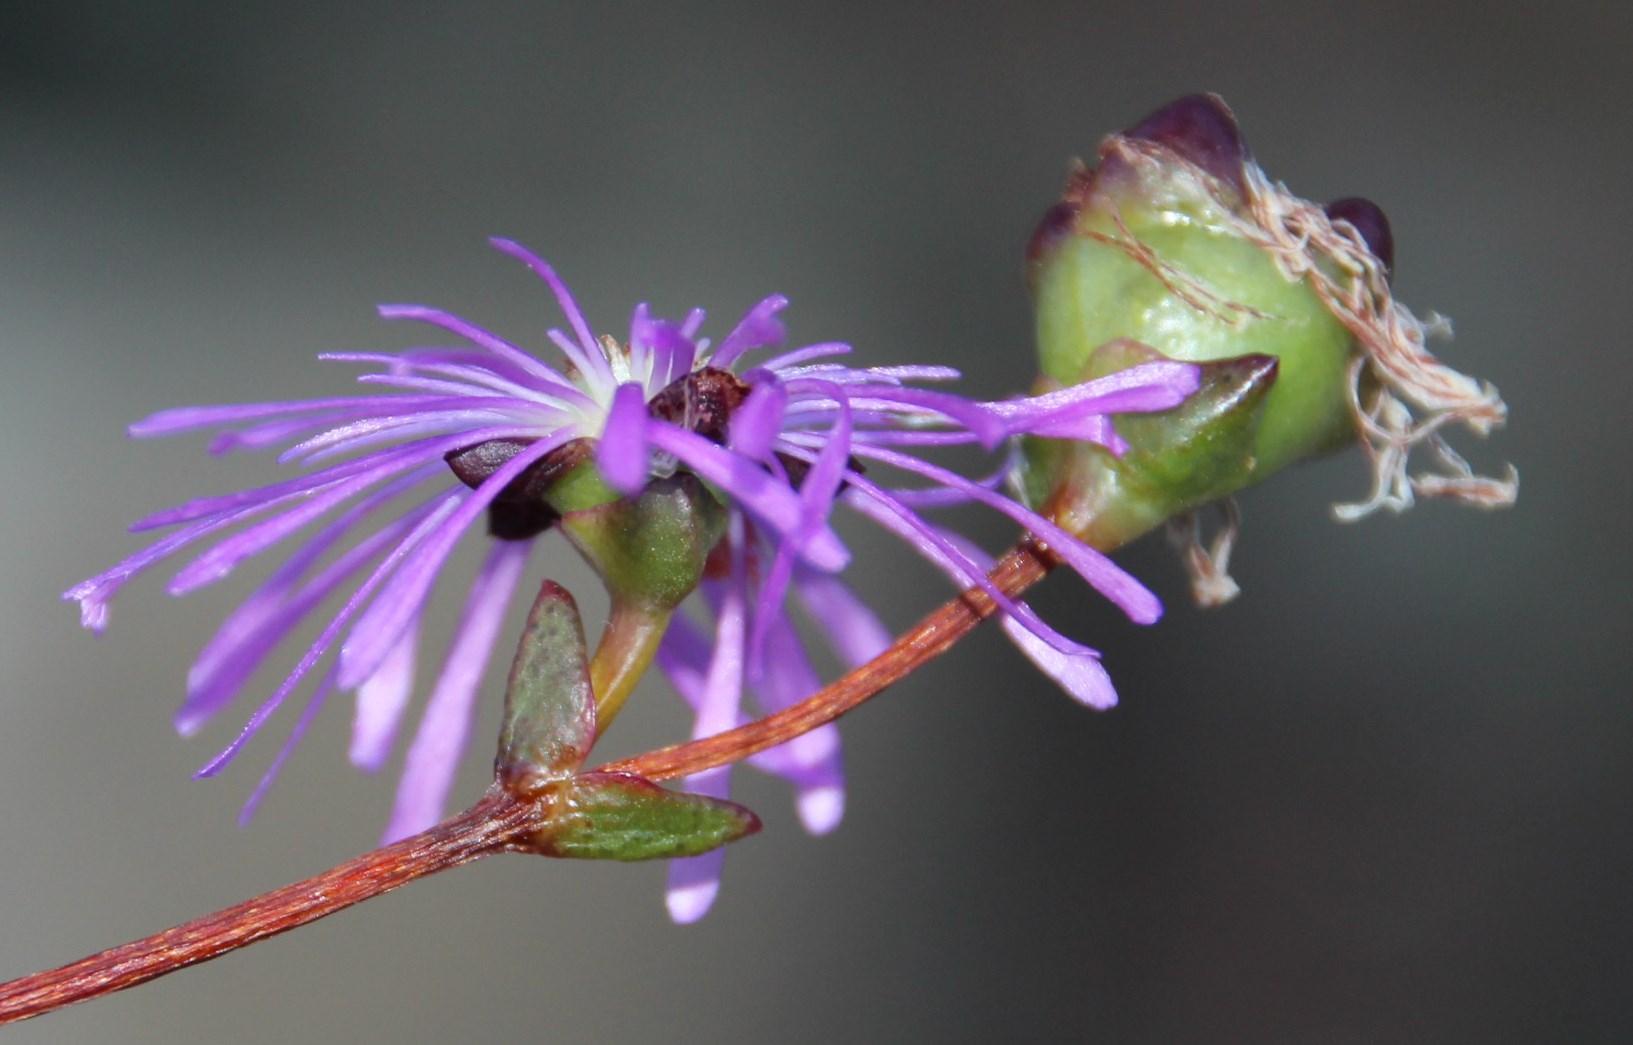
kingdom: Plantae
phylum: Tracheophyta
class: Magnoliopsida
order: Caryophyllales
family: Aizoaceae
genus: Erepsia
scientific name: Erepsia gracilis
